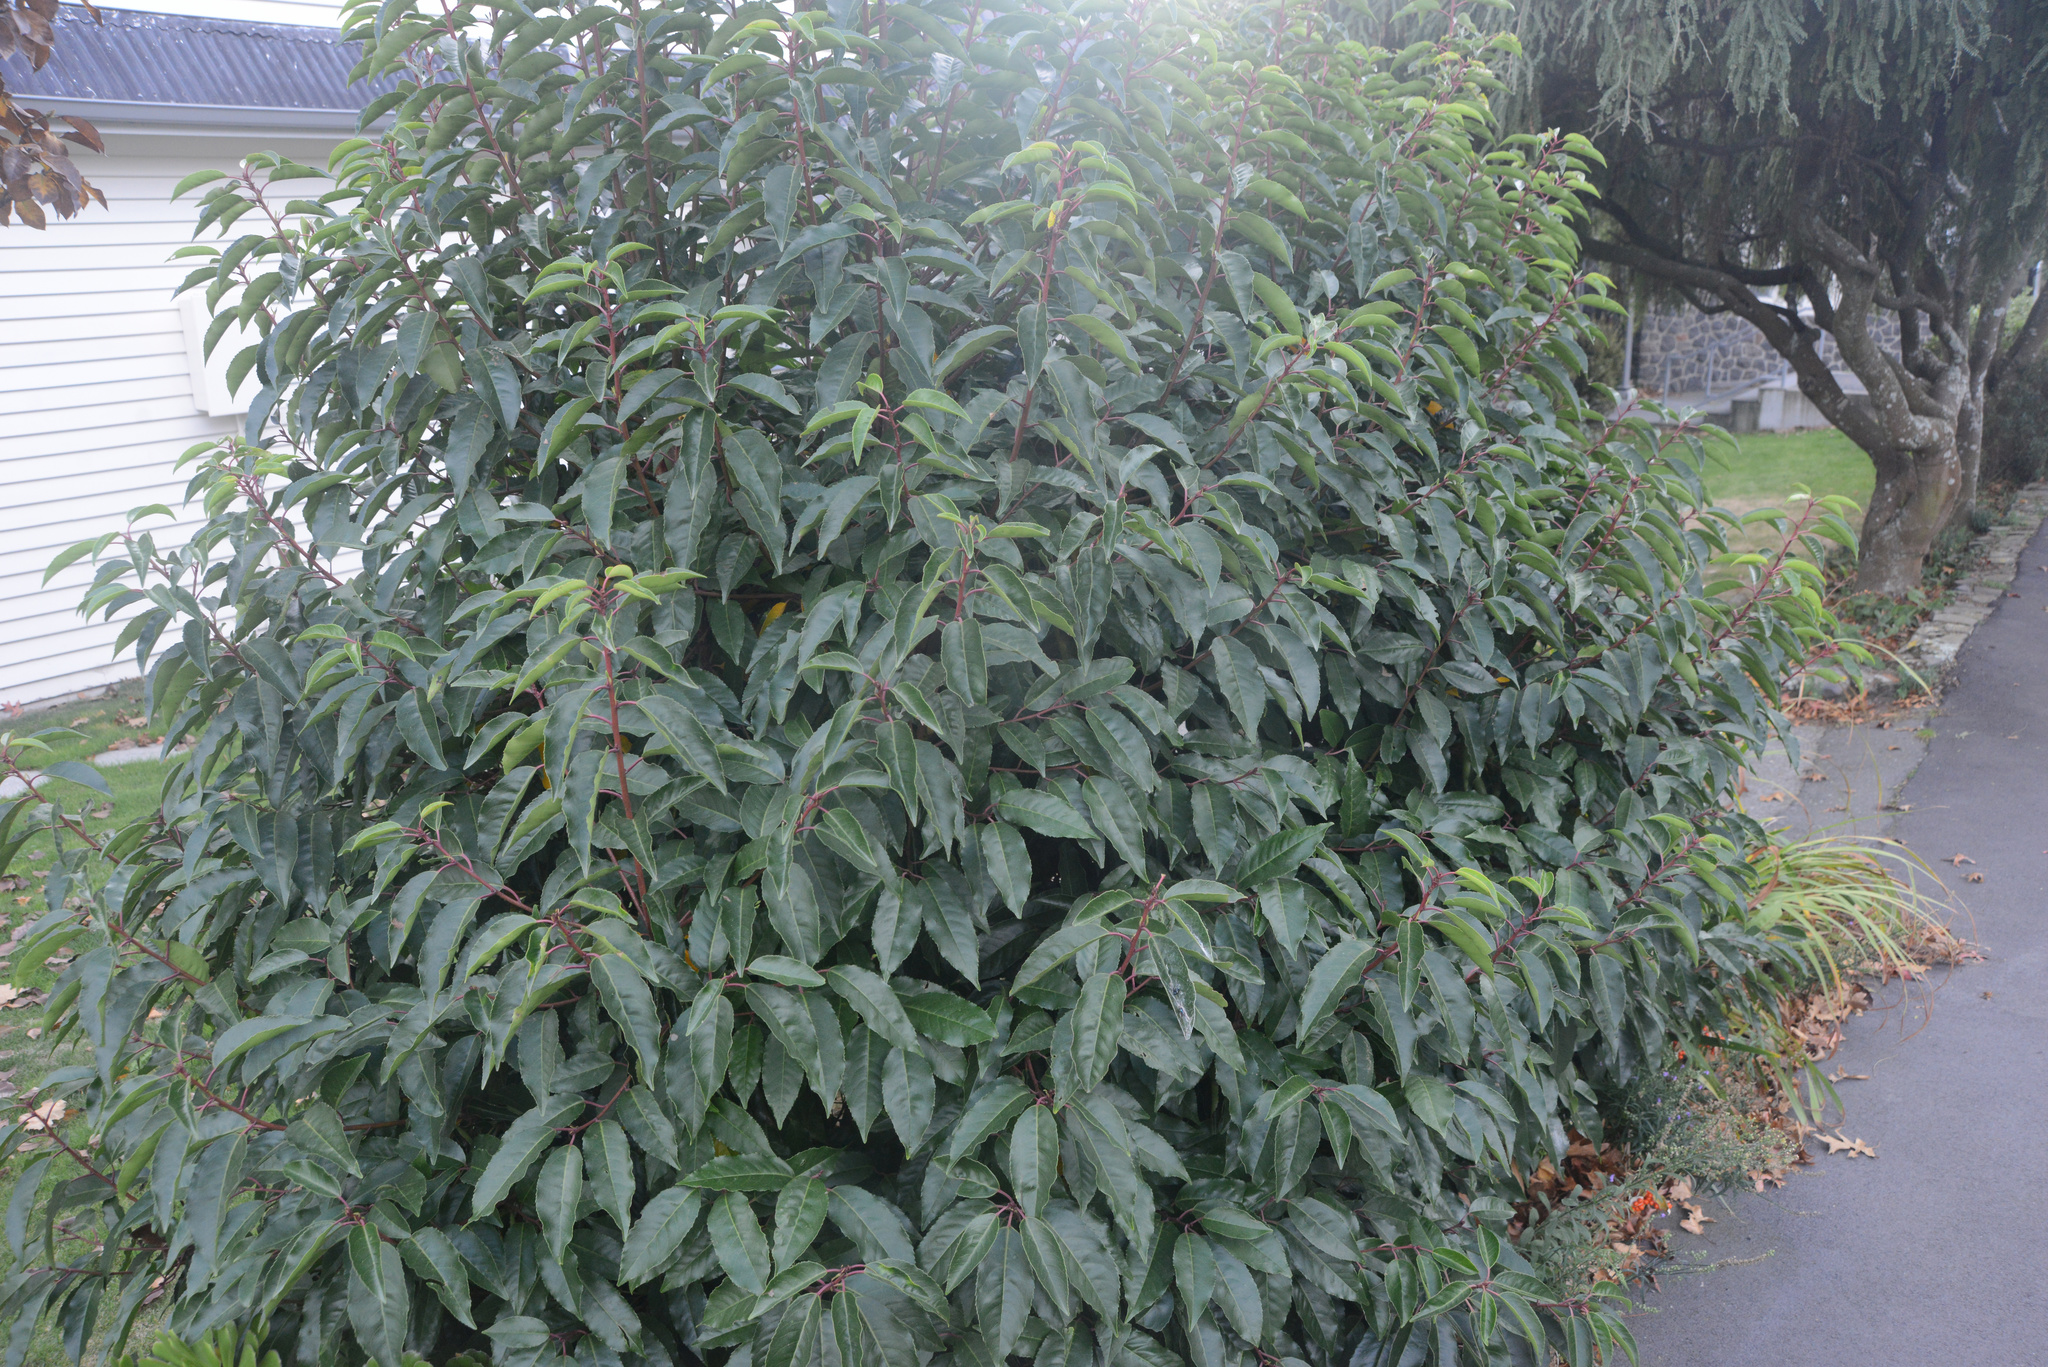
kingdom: Plantae
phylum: Tracheophyta
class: Magnoliopsida
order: Rosales
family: Rosaceae
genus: Prunus
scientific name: Prunus lusitanica
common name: Portugal laurel
